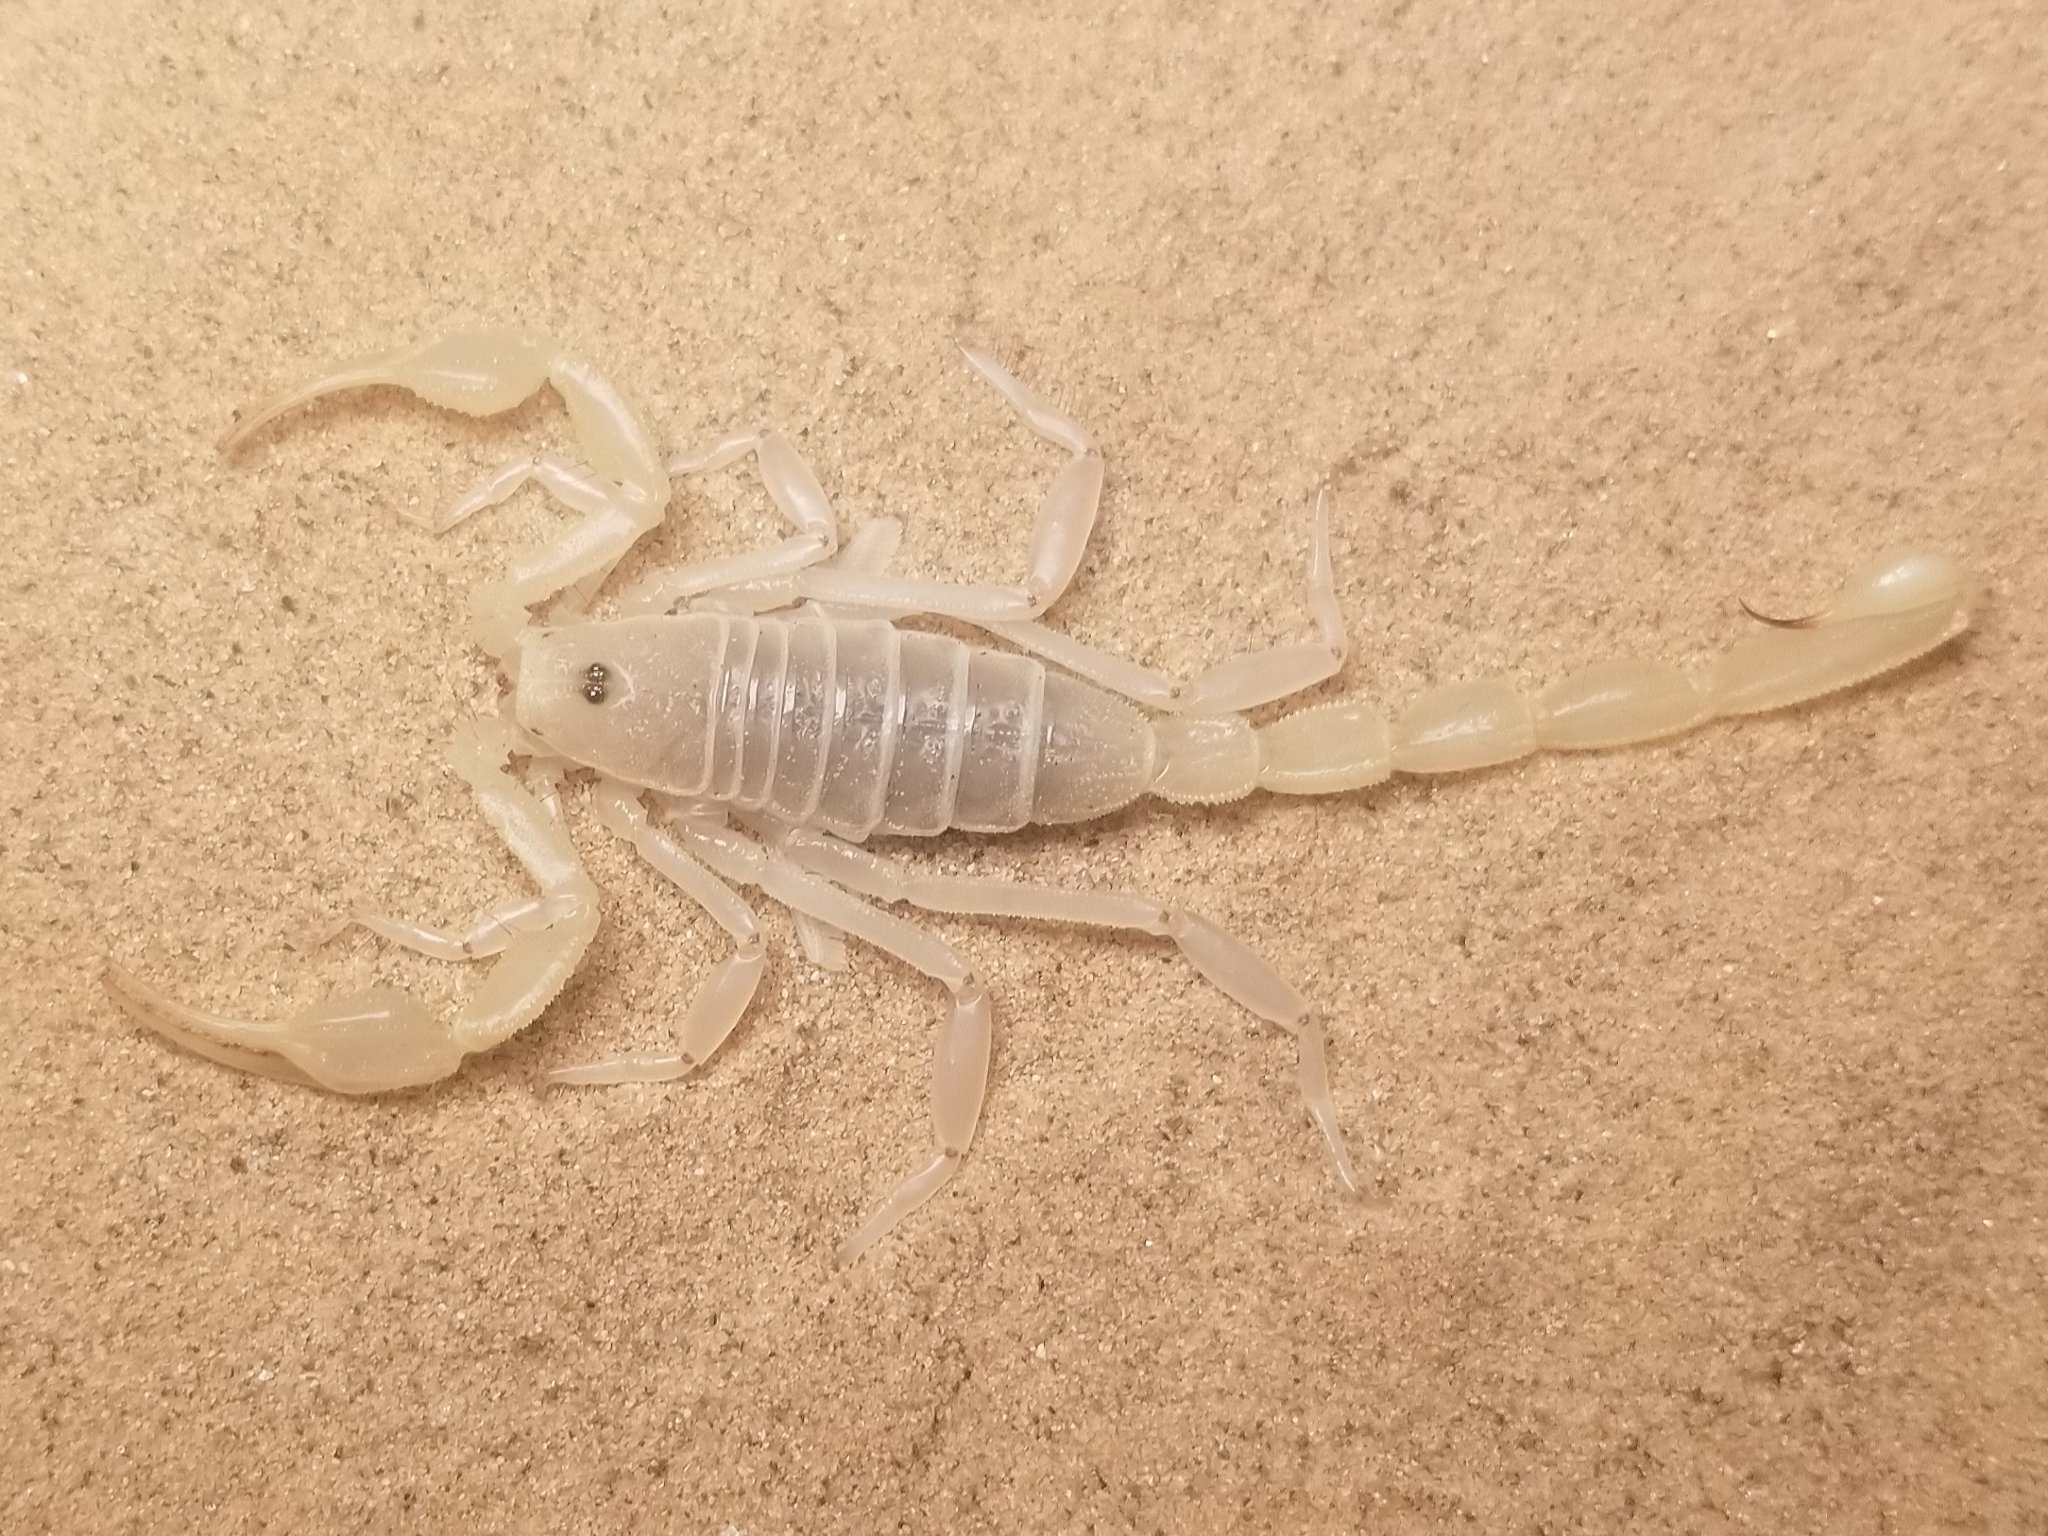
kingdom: Animalia
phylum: Arthropoda
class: Arachnida
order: Scorpiones
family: Vaejovidae
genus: Paruroctonus
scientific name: Paruroctonus xanthus
